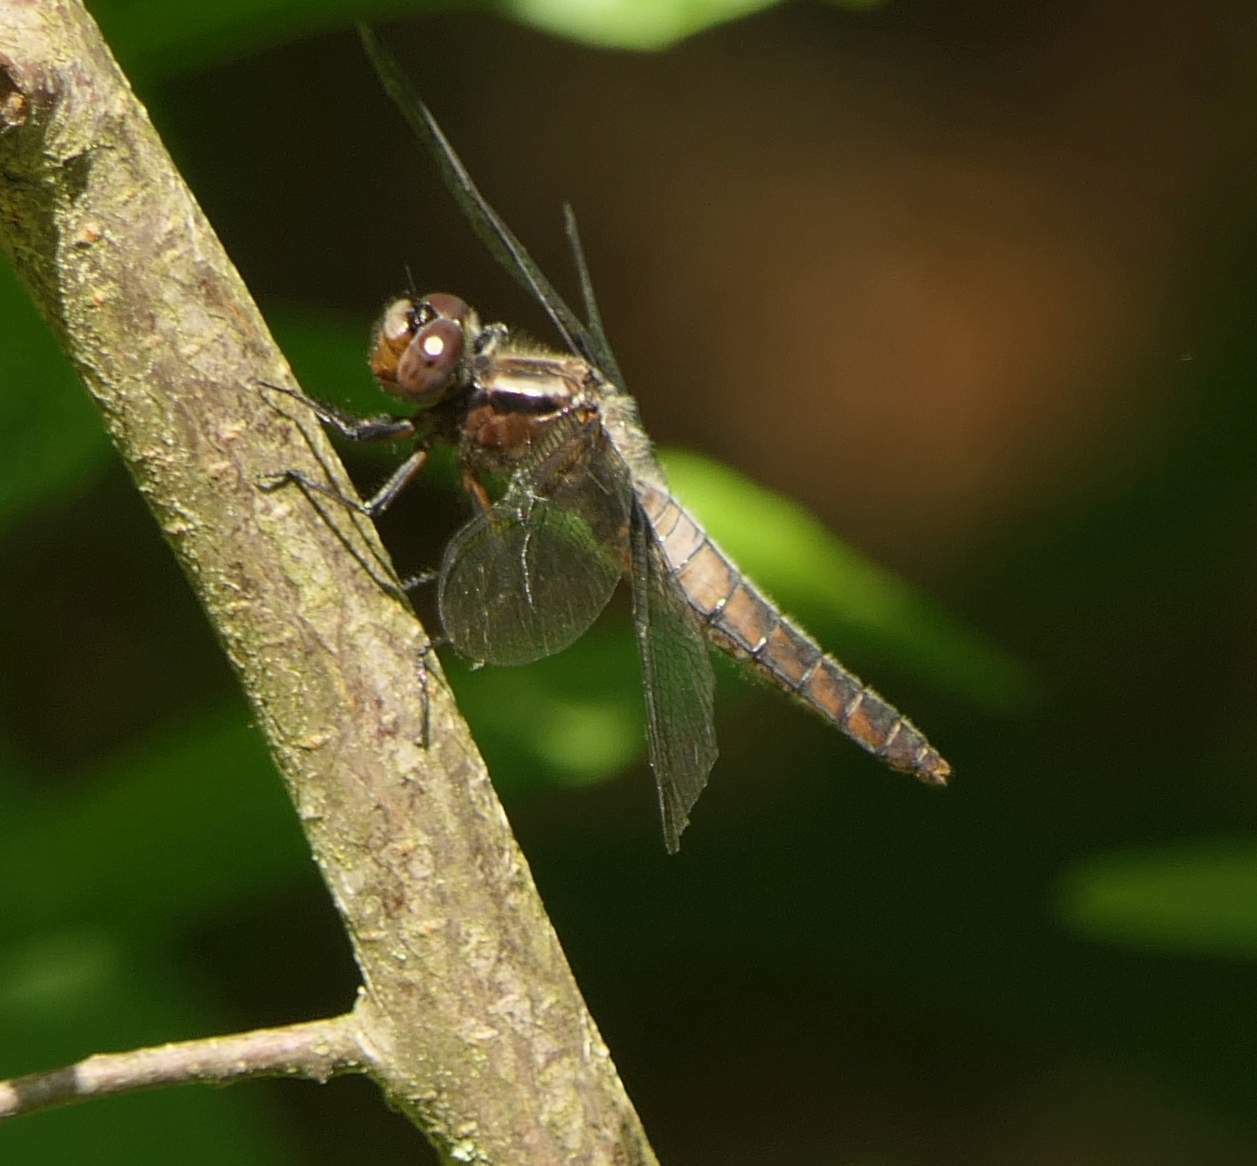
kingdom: Animalia
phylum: Arthropoda
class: Insecta
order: Odonata
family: Libellulidae
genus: Ladona
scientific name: Ladona julia
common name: Chalk-fronted corporal
